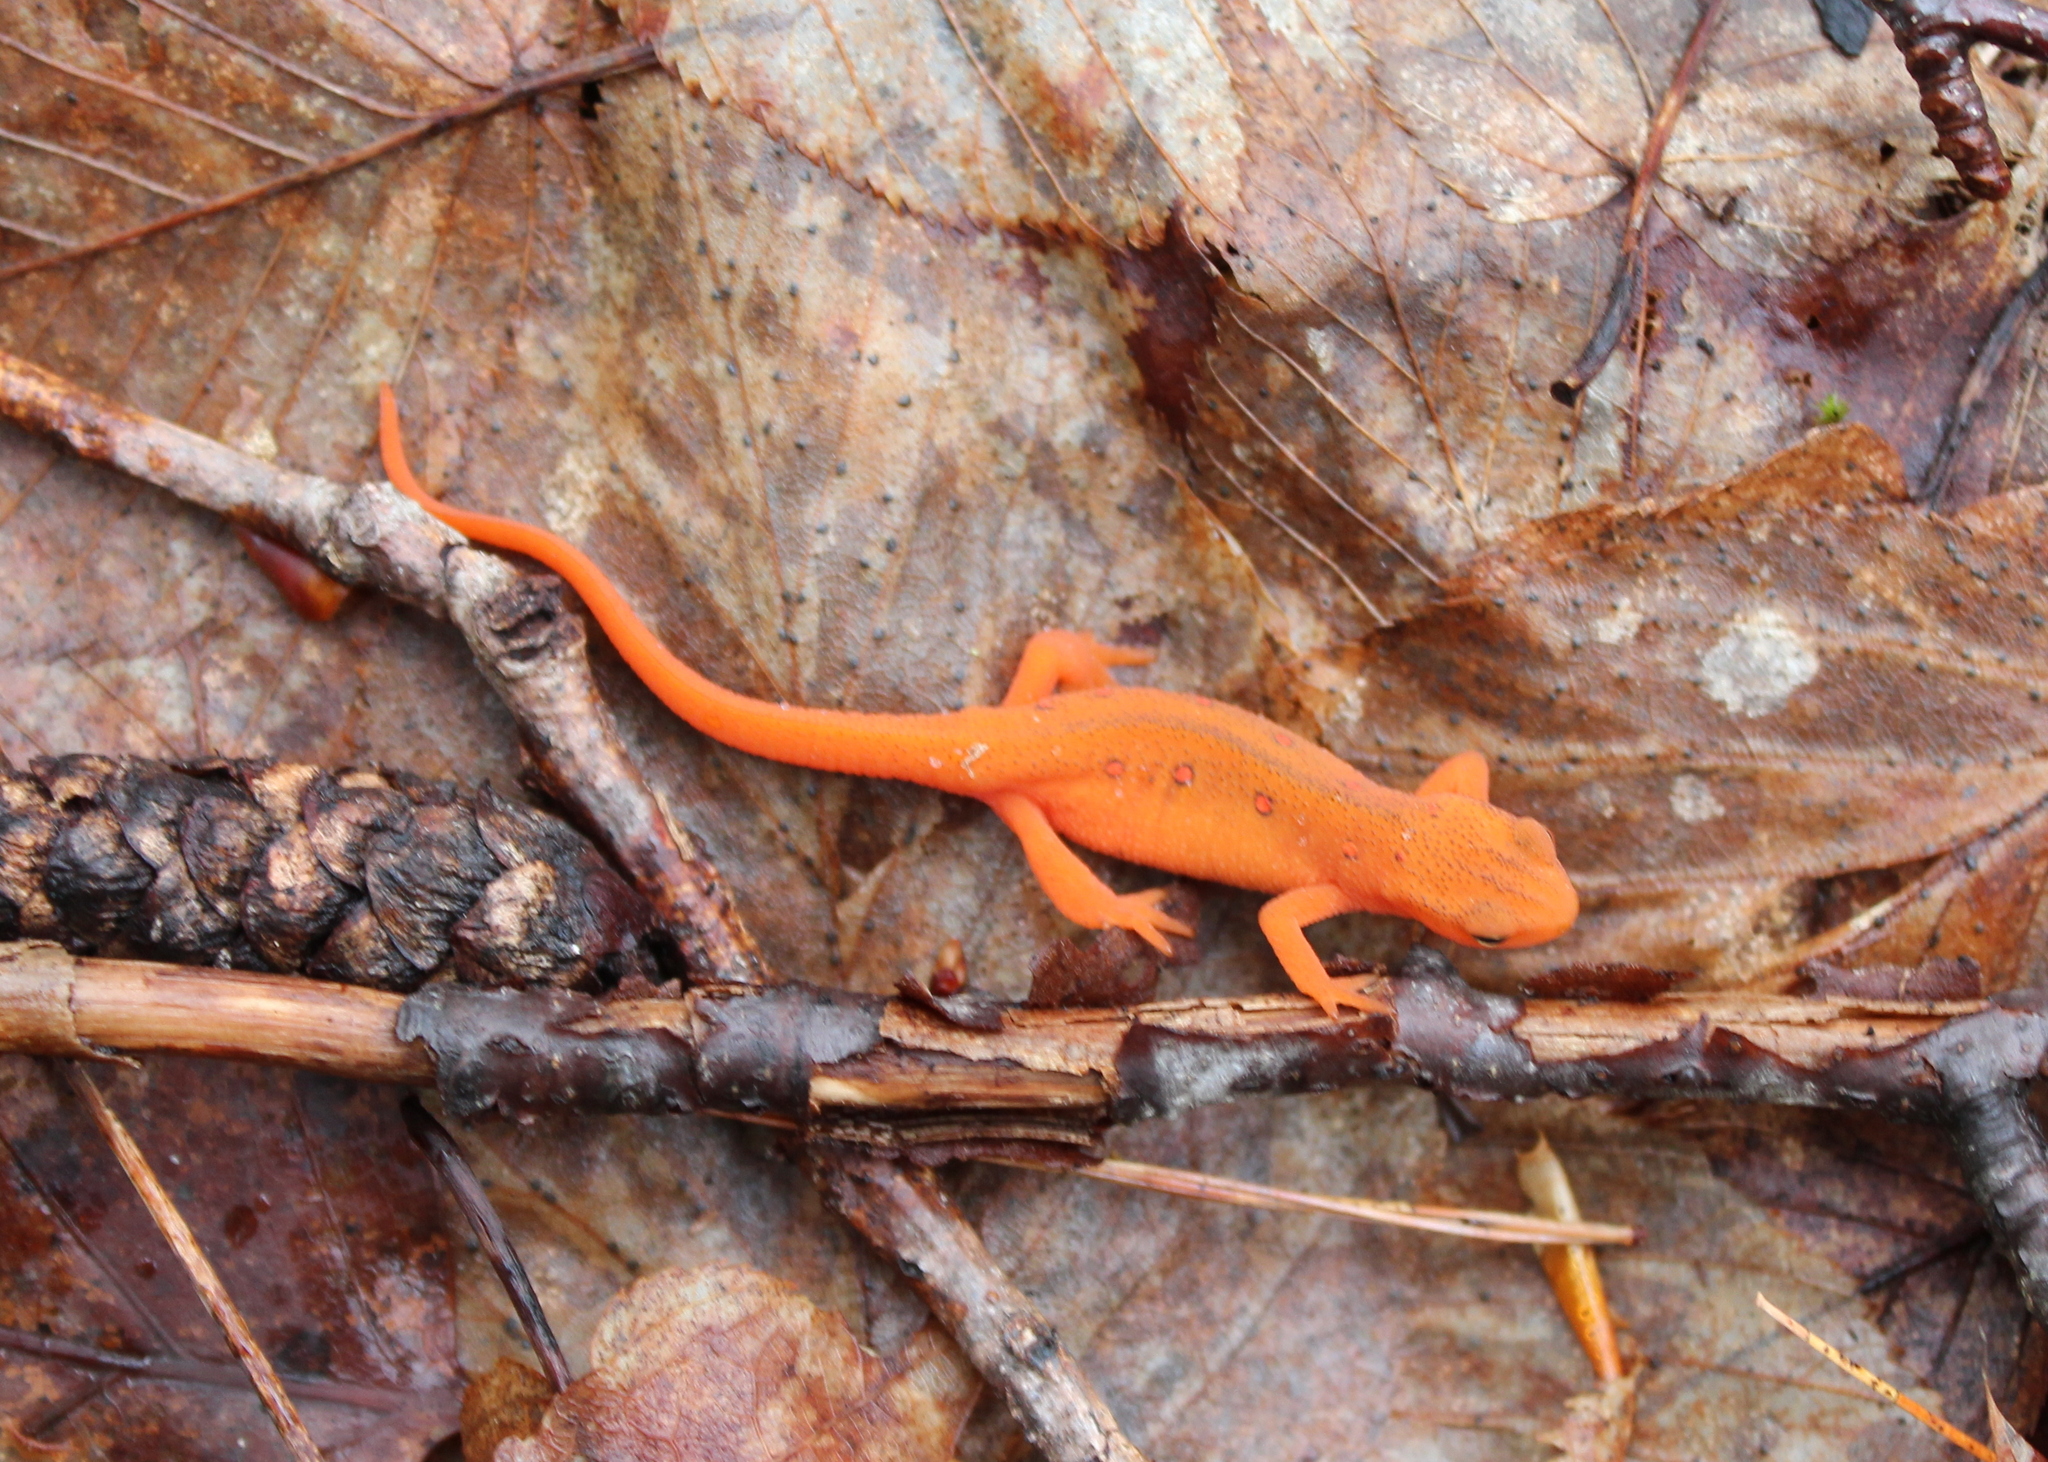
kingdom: Animalia
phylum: Chordata
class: Amphibia
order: Caudata
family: Salamandridae
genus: Notophthalmus
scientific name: Notophthalmus viridescens
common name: Eastern newt
